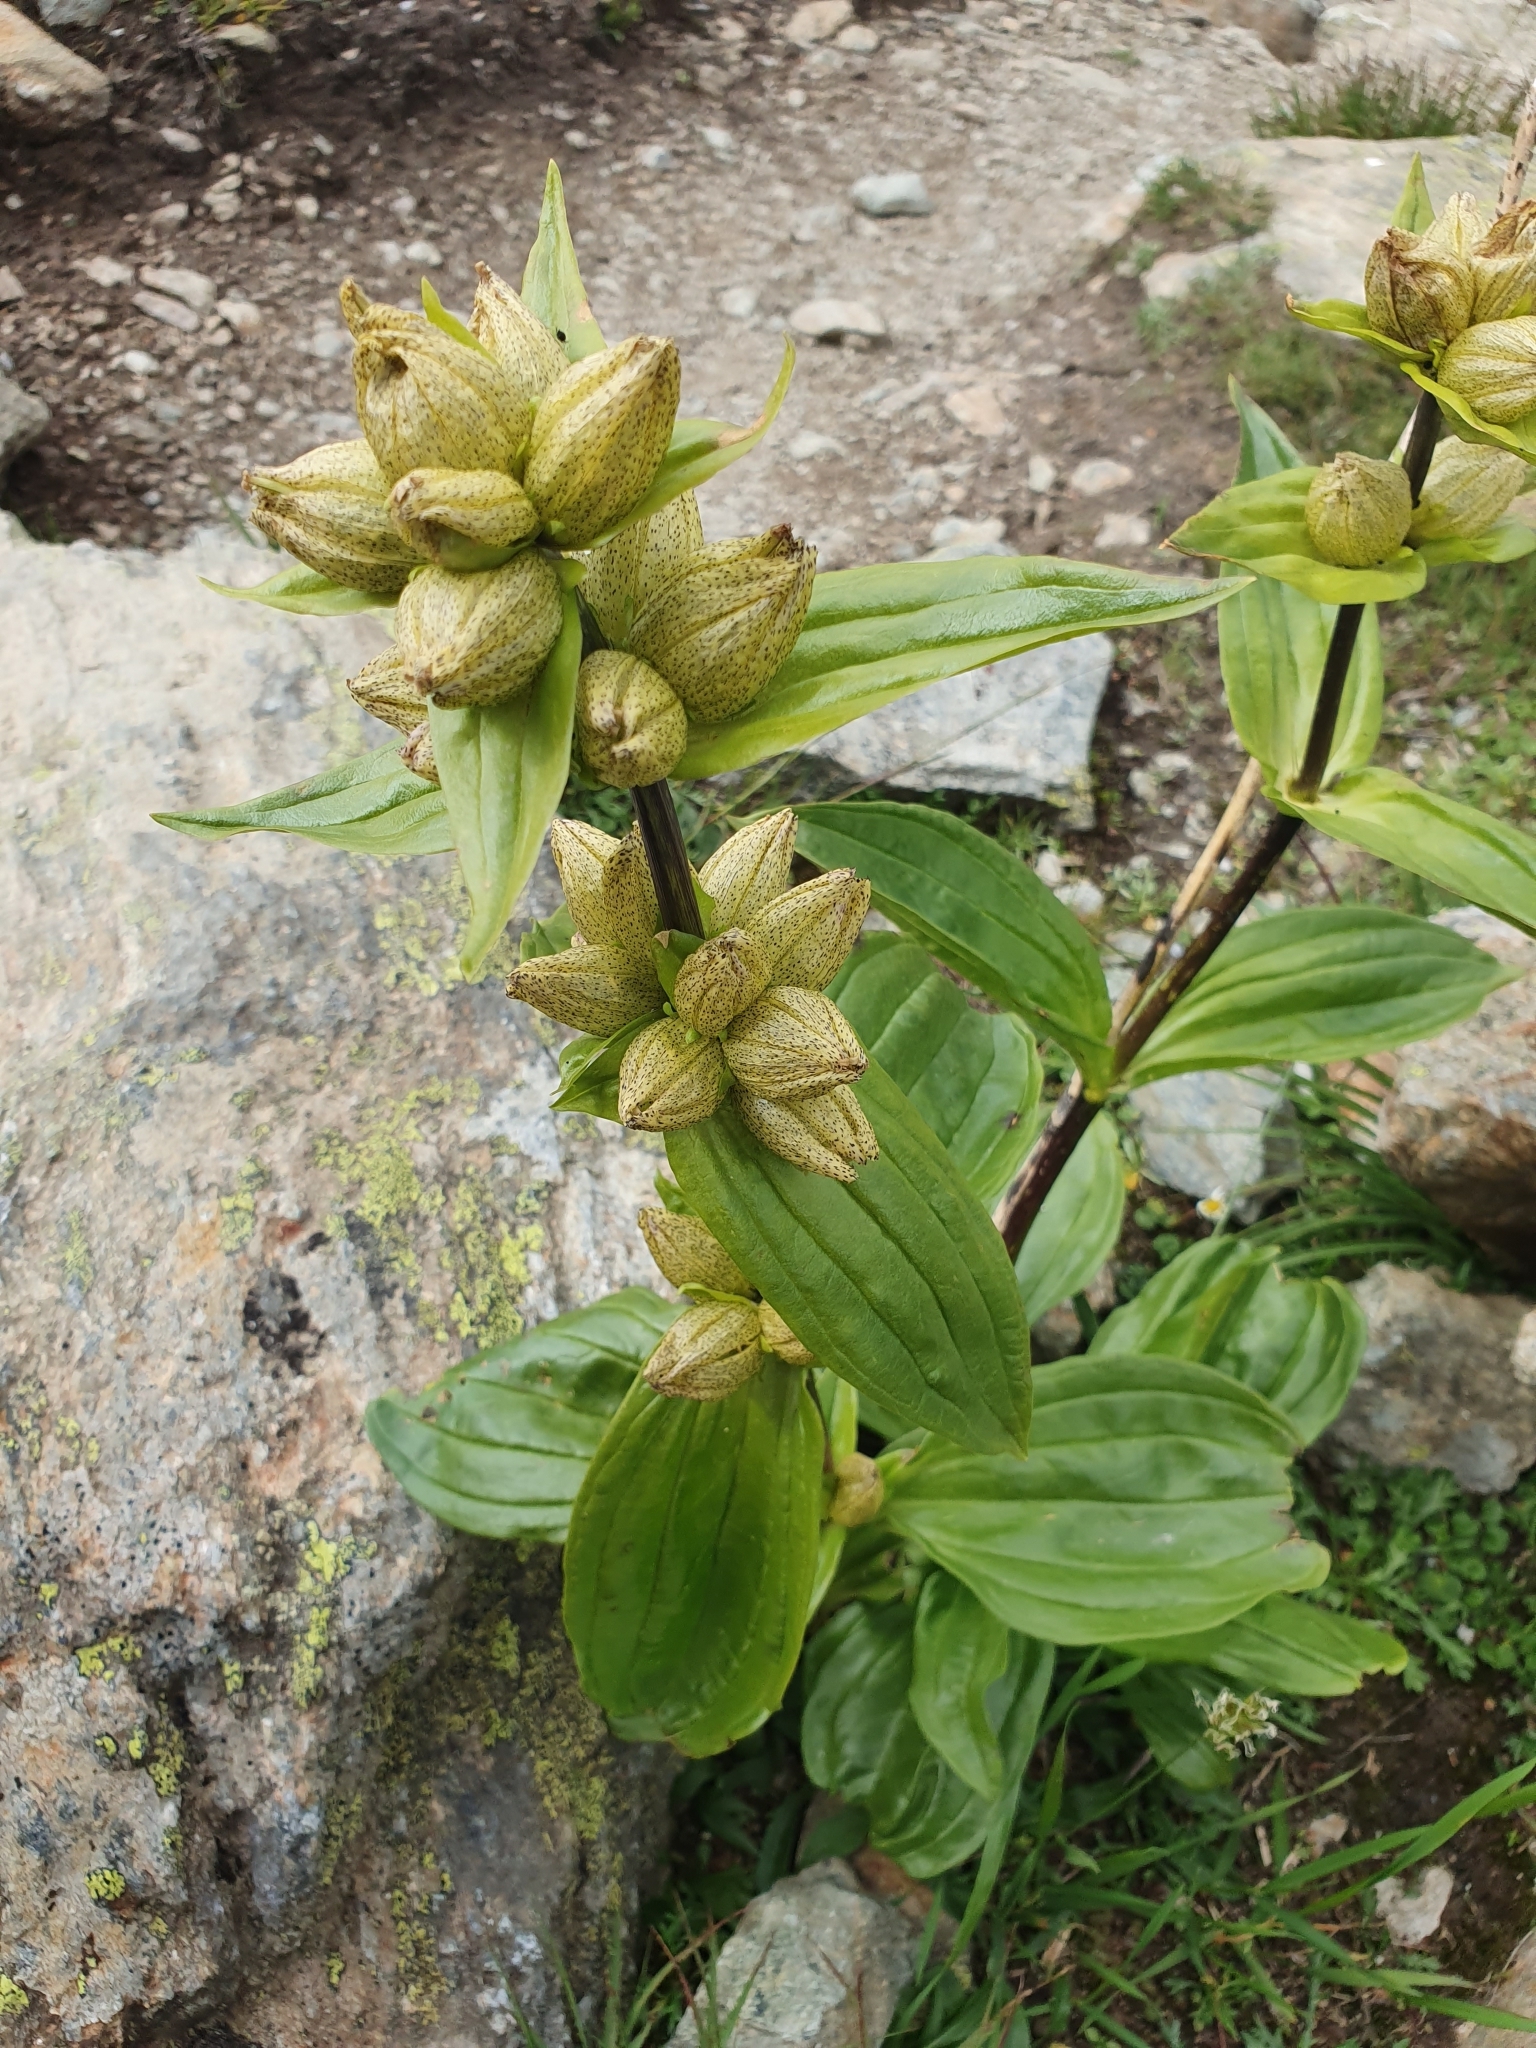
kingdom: Plantae
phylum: Tracheophyta
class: Magnoliopsida
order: Gentianales
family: Gentianaceae
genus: Gentiana
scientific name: Gentiana punctata
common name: Spotted gentian
